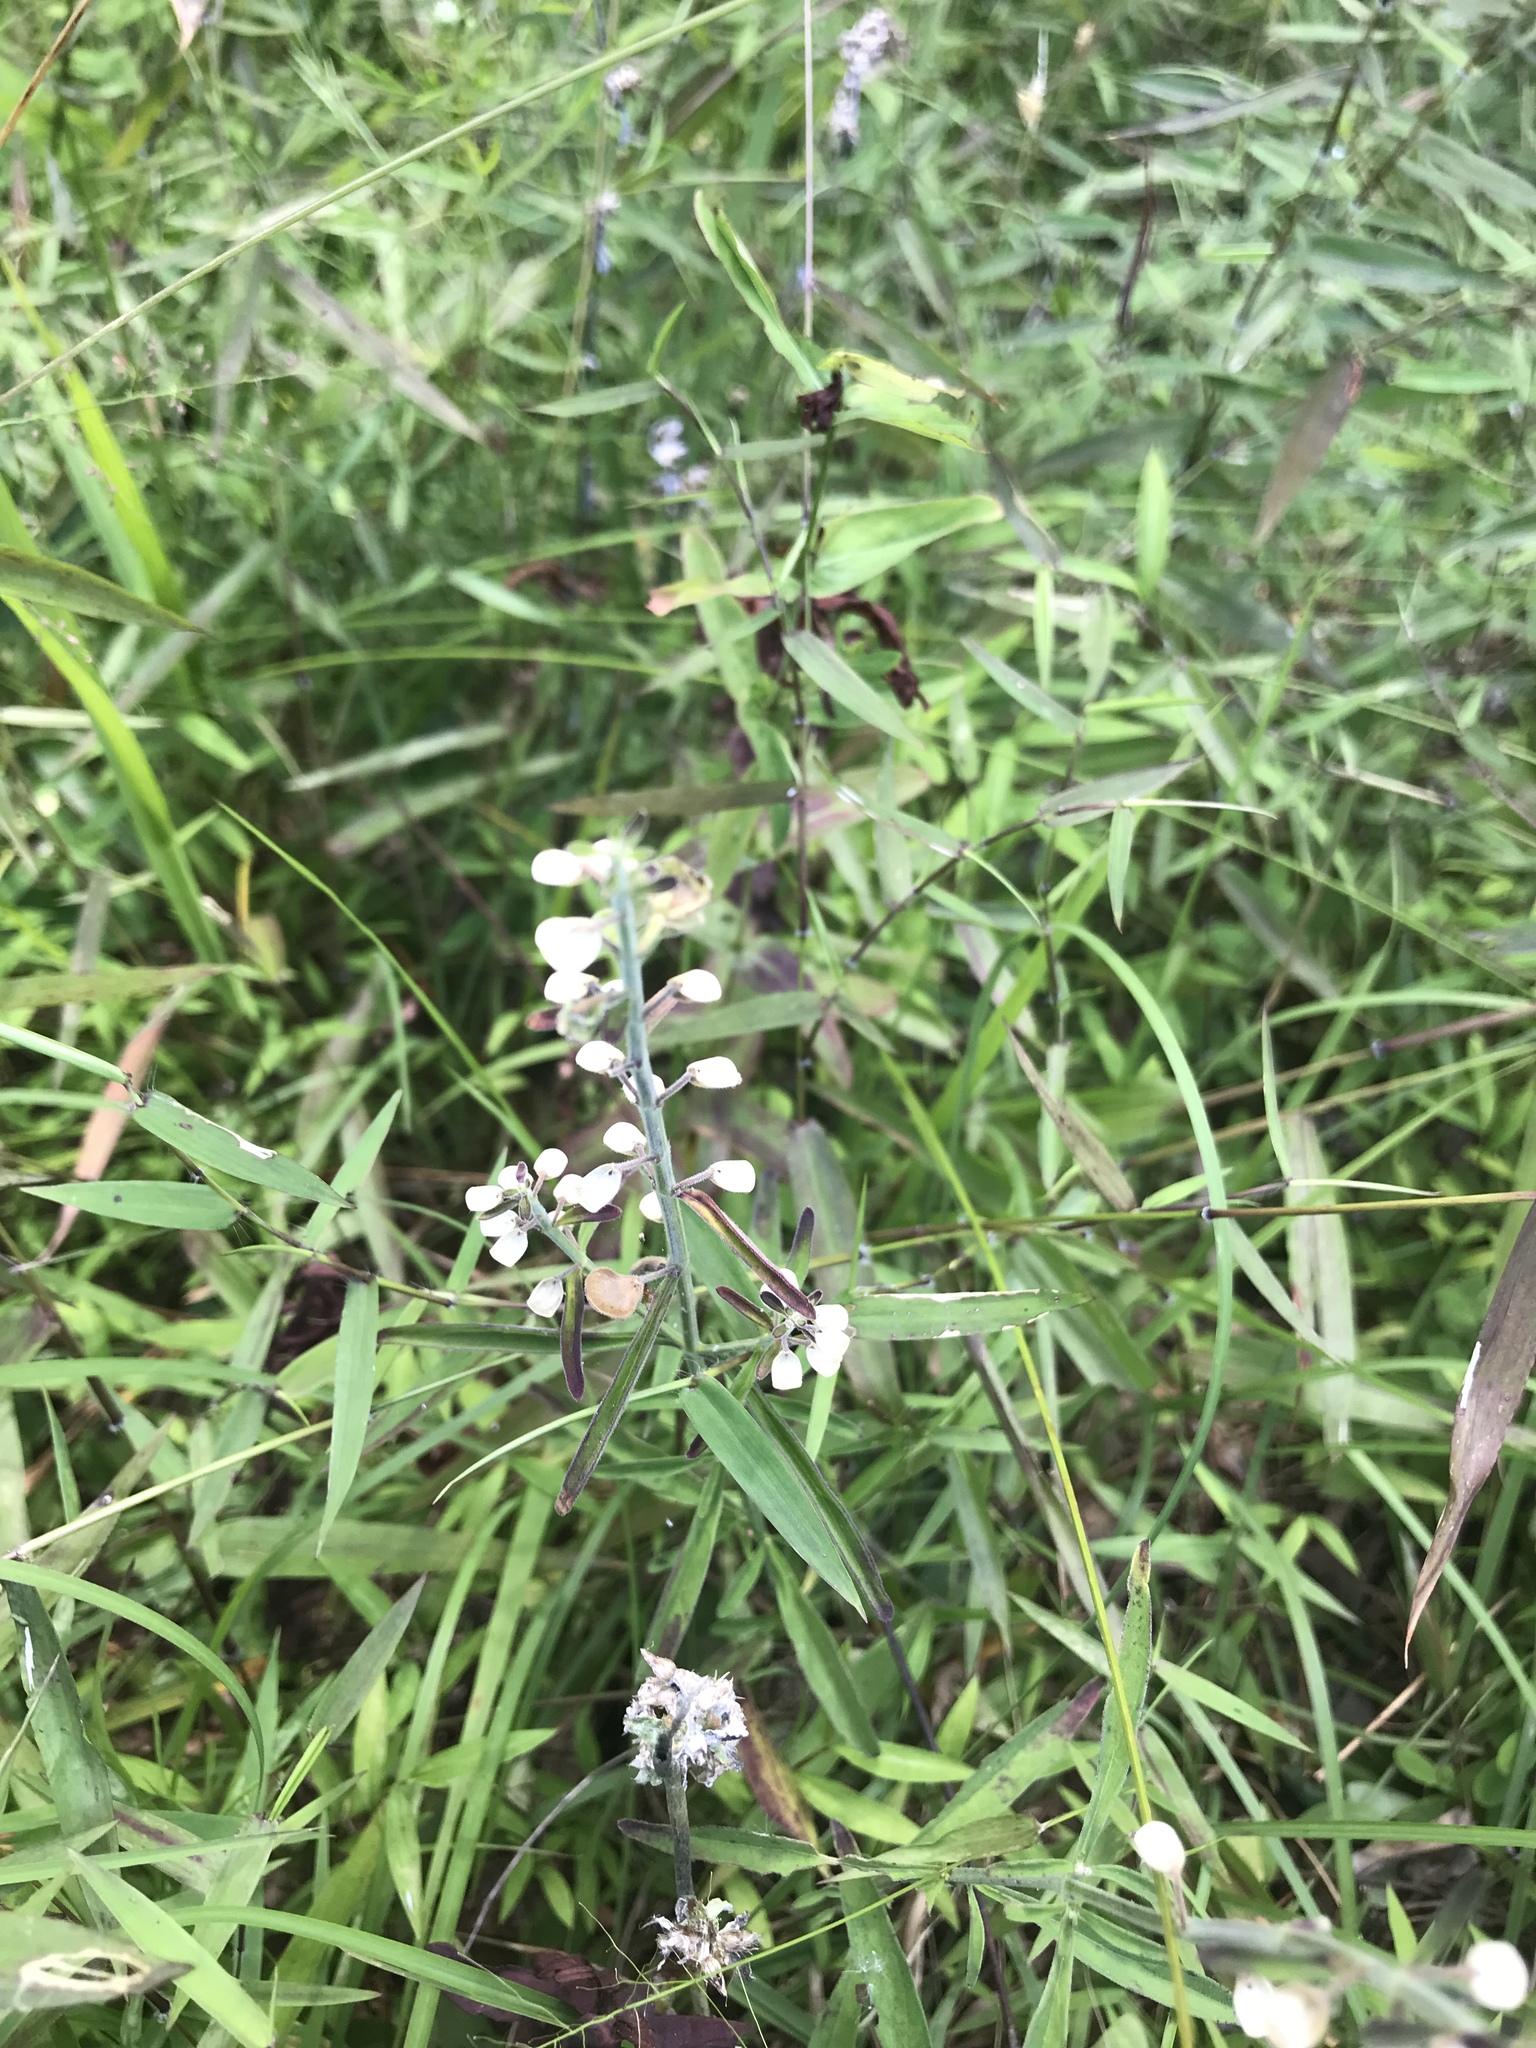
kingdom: Plantae
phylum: Tracheophyta
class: Magnoliopsida
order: Lamiales
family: Lamiaceae
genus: Scutellaria
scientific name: Scutellaria integrifolia
